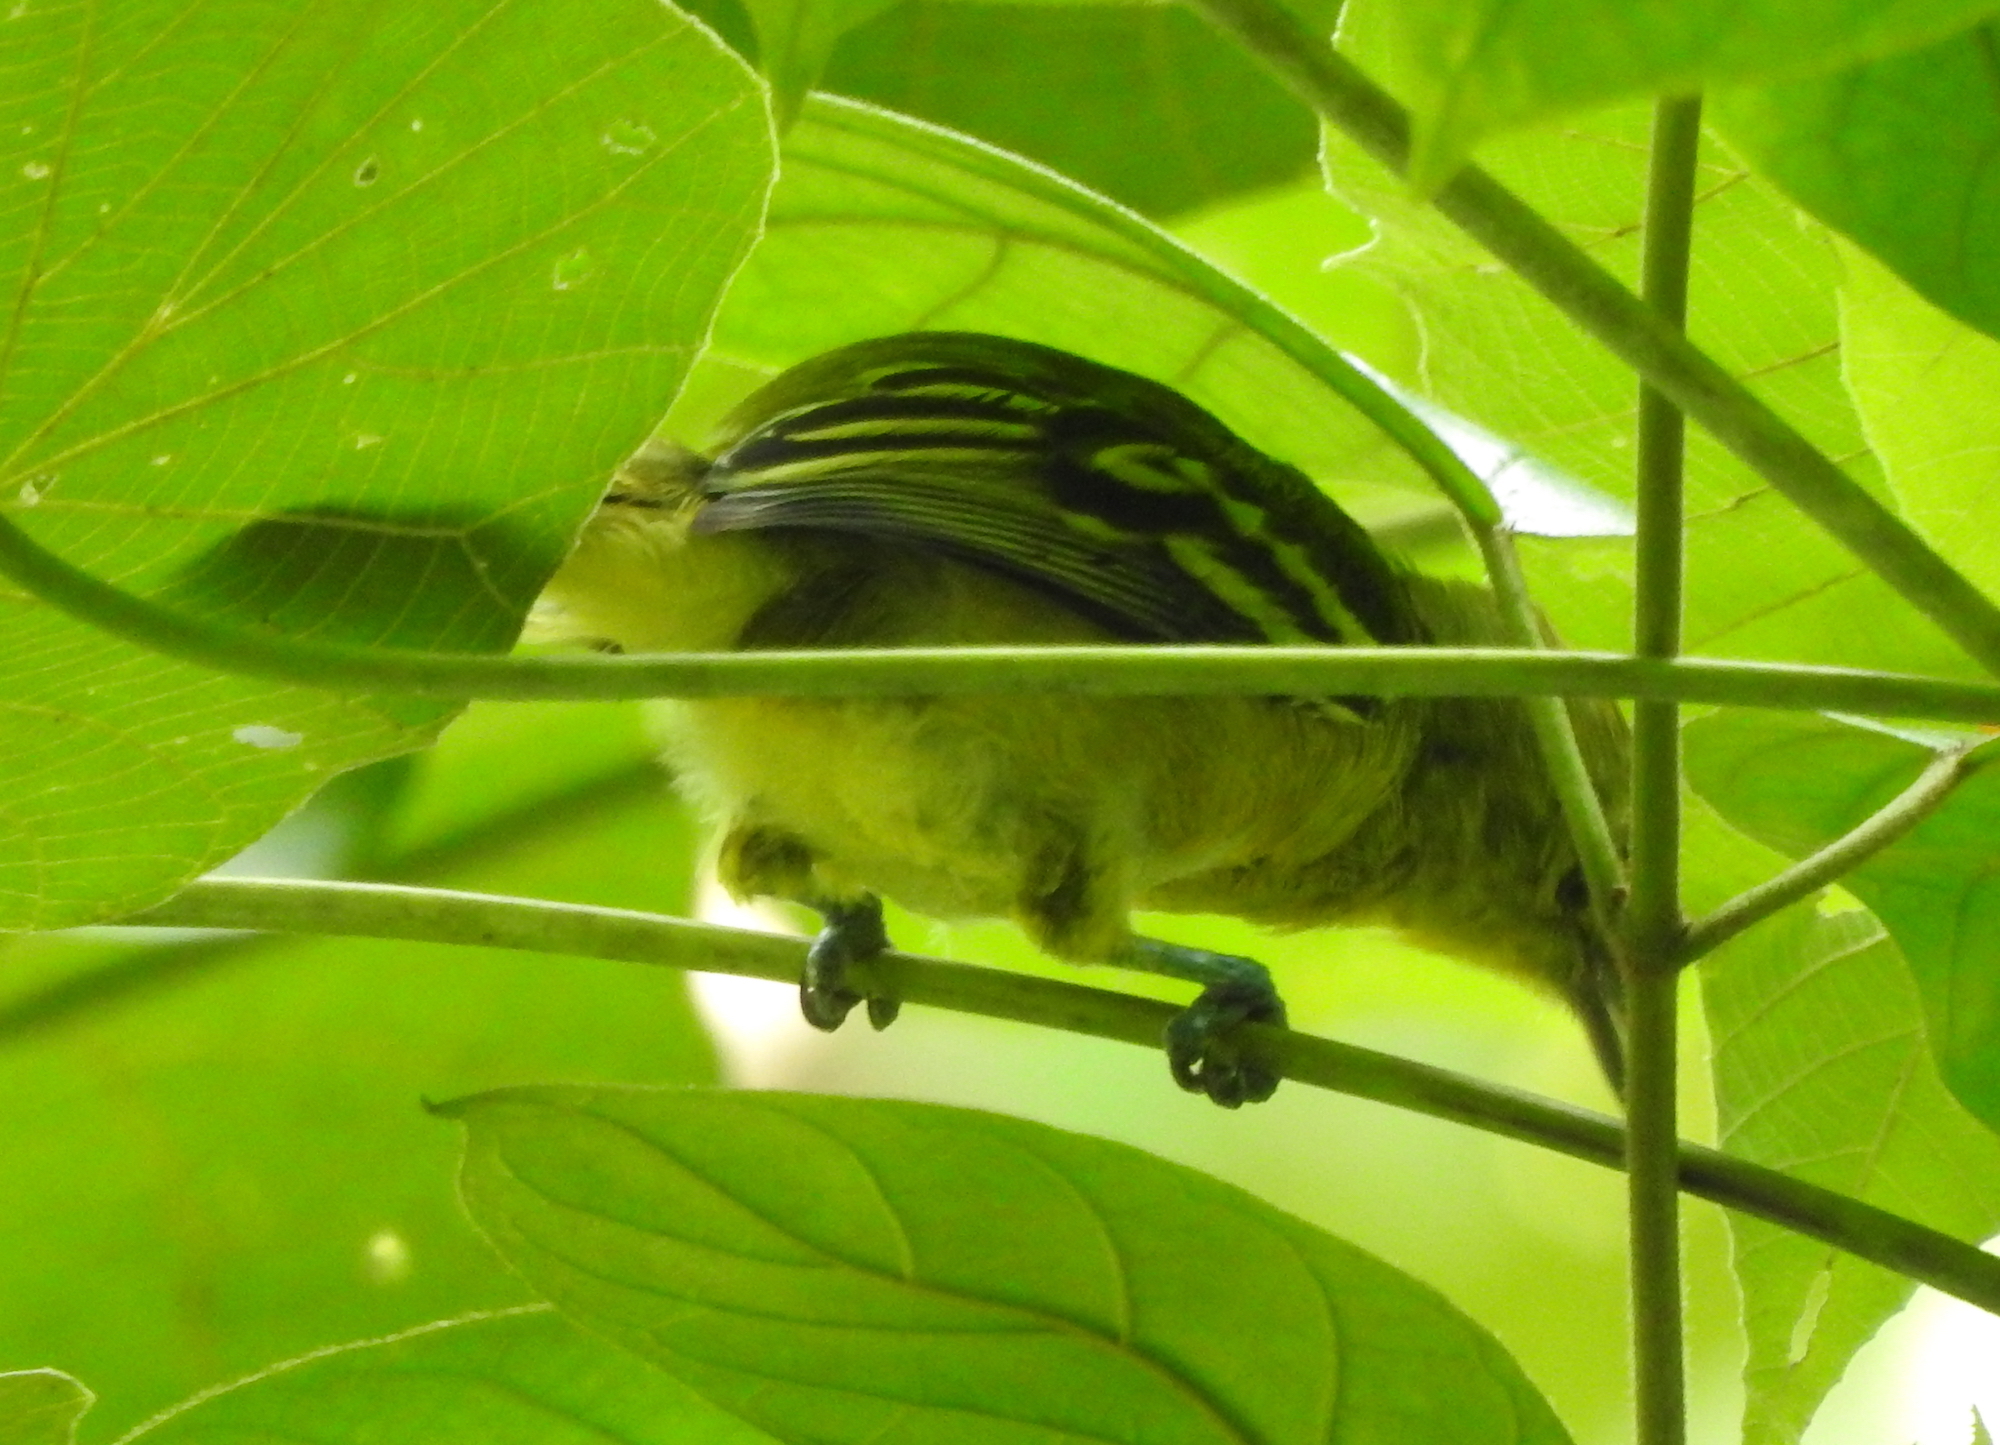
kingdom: Animalia
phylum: Chordata
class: Aves
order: Passeriformes
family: Aegithinidae
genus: Aegithina
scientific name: Aegithina tiphia
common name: Common iora
